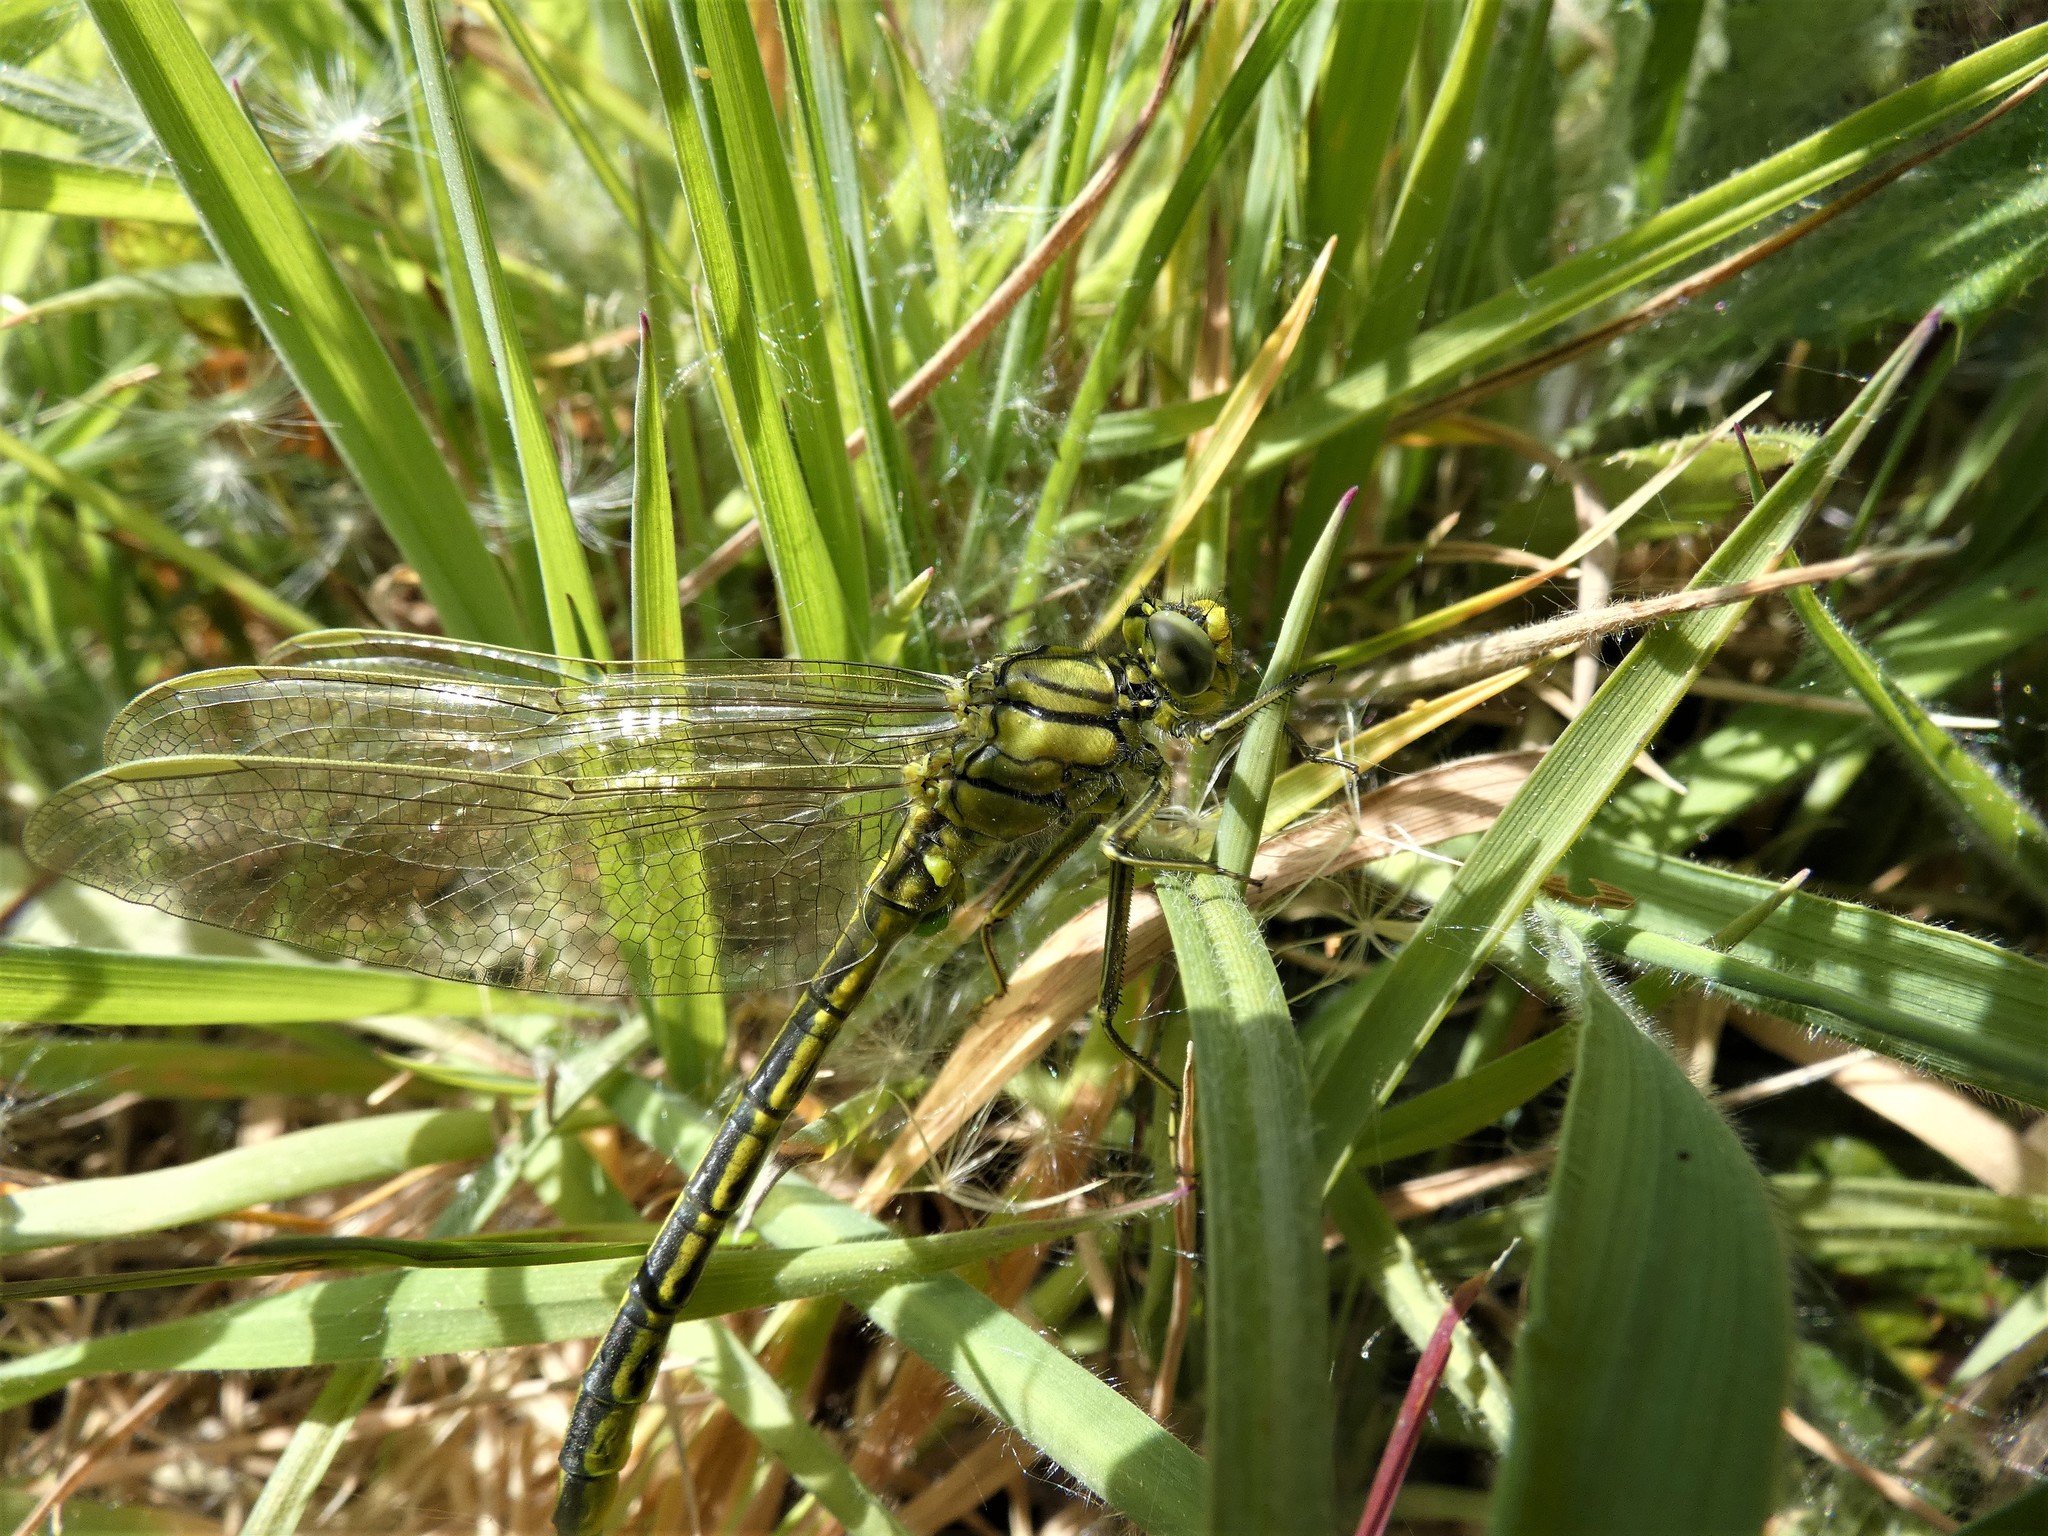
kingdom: Animalia
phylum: Arthropoda
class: Insecta
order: Odonata
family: Gomphidae
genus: Gomphus
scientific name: Gomphus pulchellus
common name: Western clubtail
